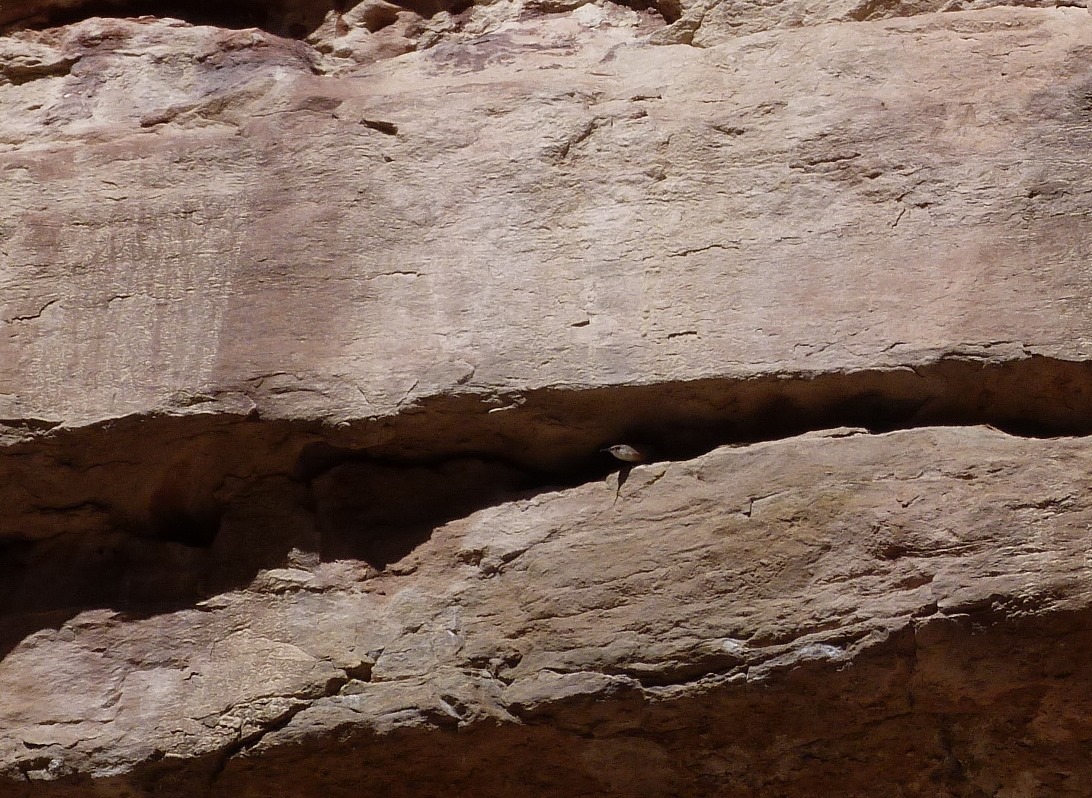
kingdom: Animalia
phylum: Chordata
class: Aves
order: Passeriformes
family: Troglodytidae
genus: Catherpes
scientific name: Catherpes mexicanus
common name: Canyon wren
